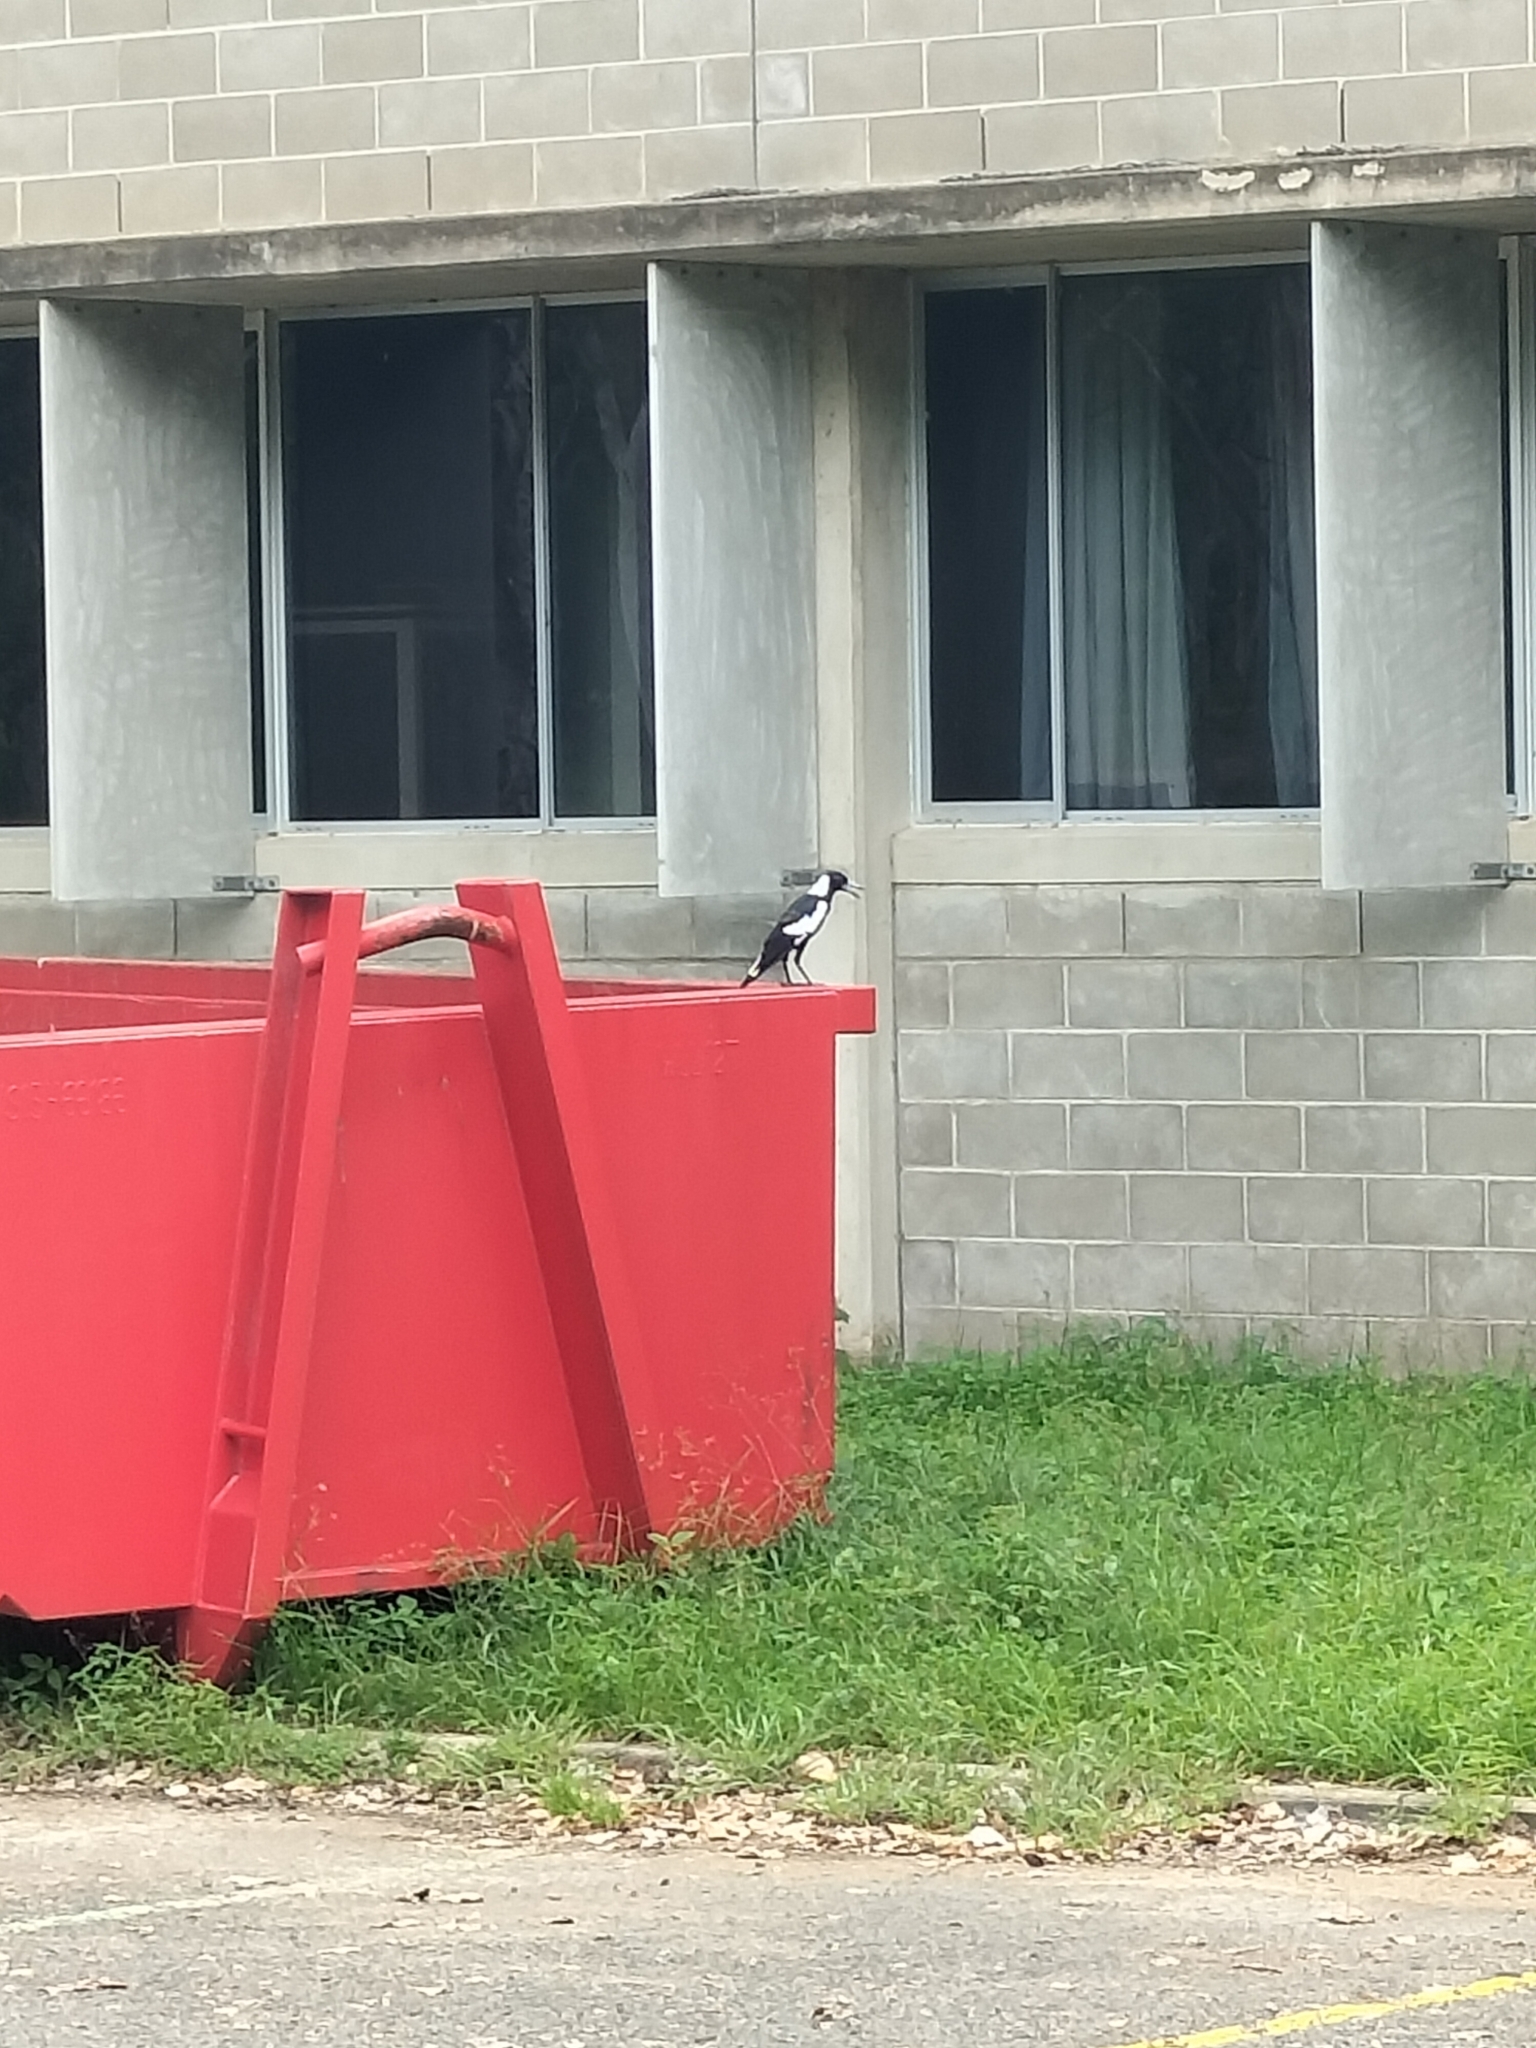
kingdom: Animalia
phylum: Chordata
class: Aves
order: Passeriformes
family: Cracticidae
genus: Gymnorhina
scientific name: Gymnorhina tibicen
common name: Australian magpie
